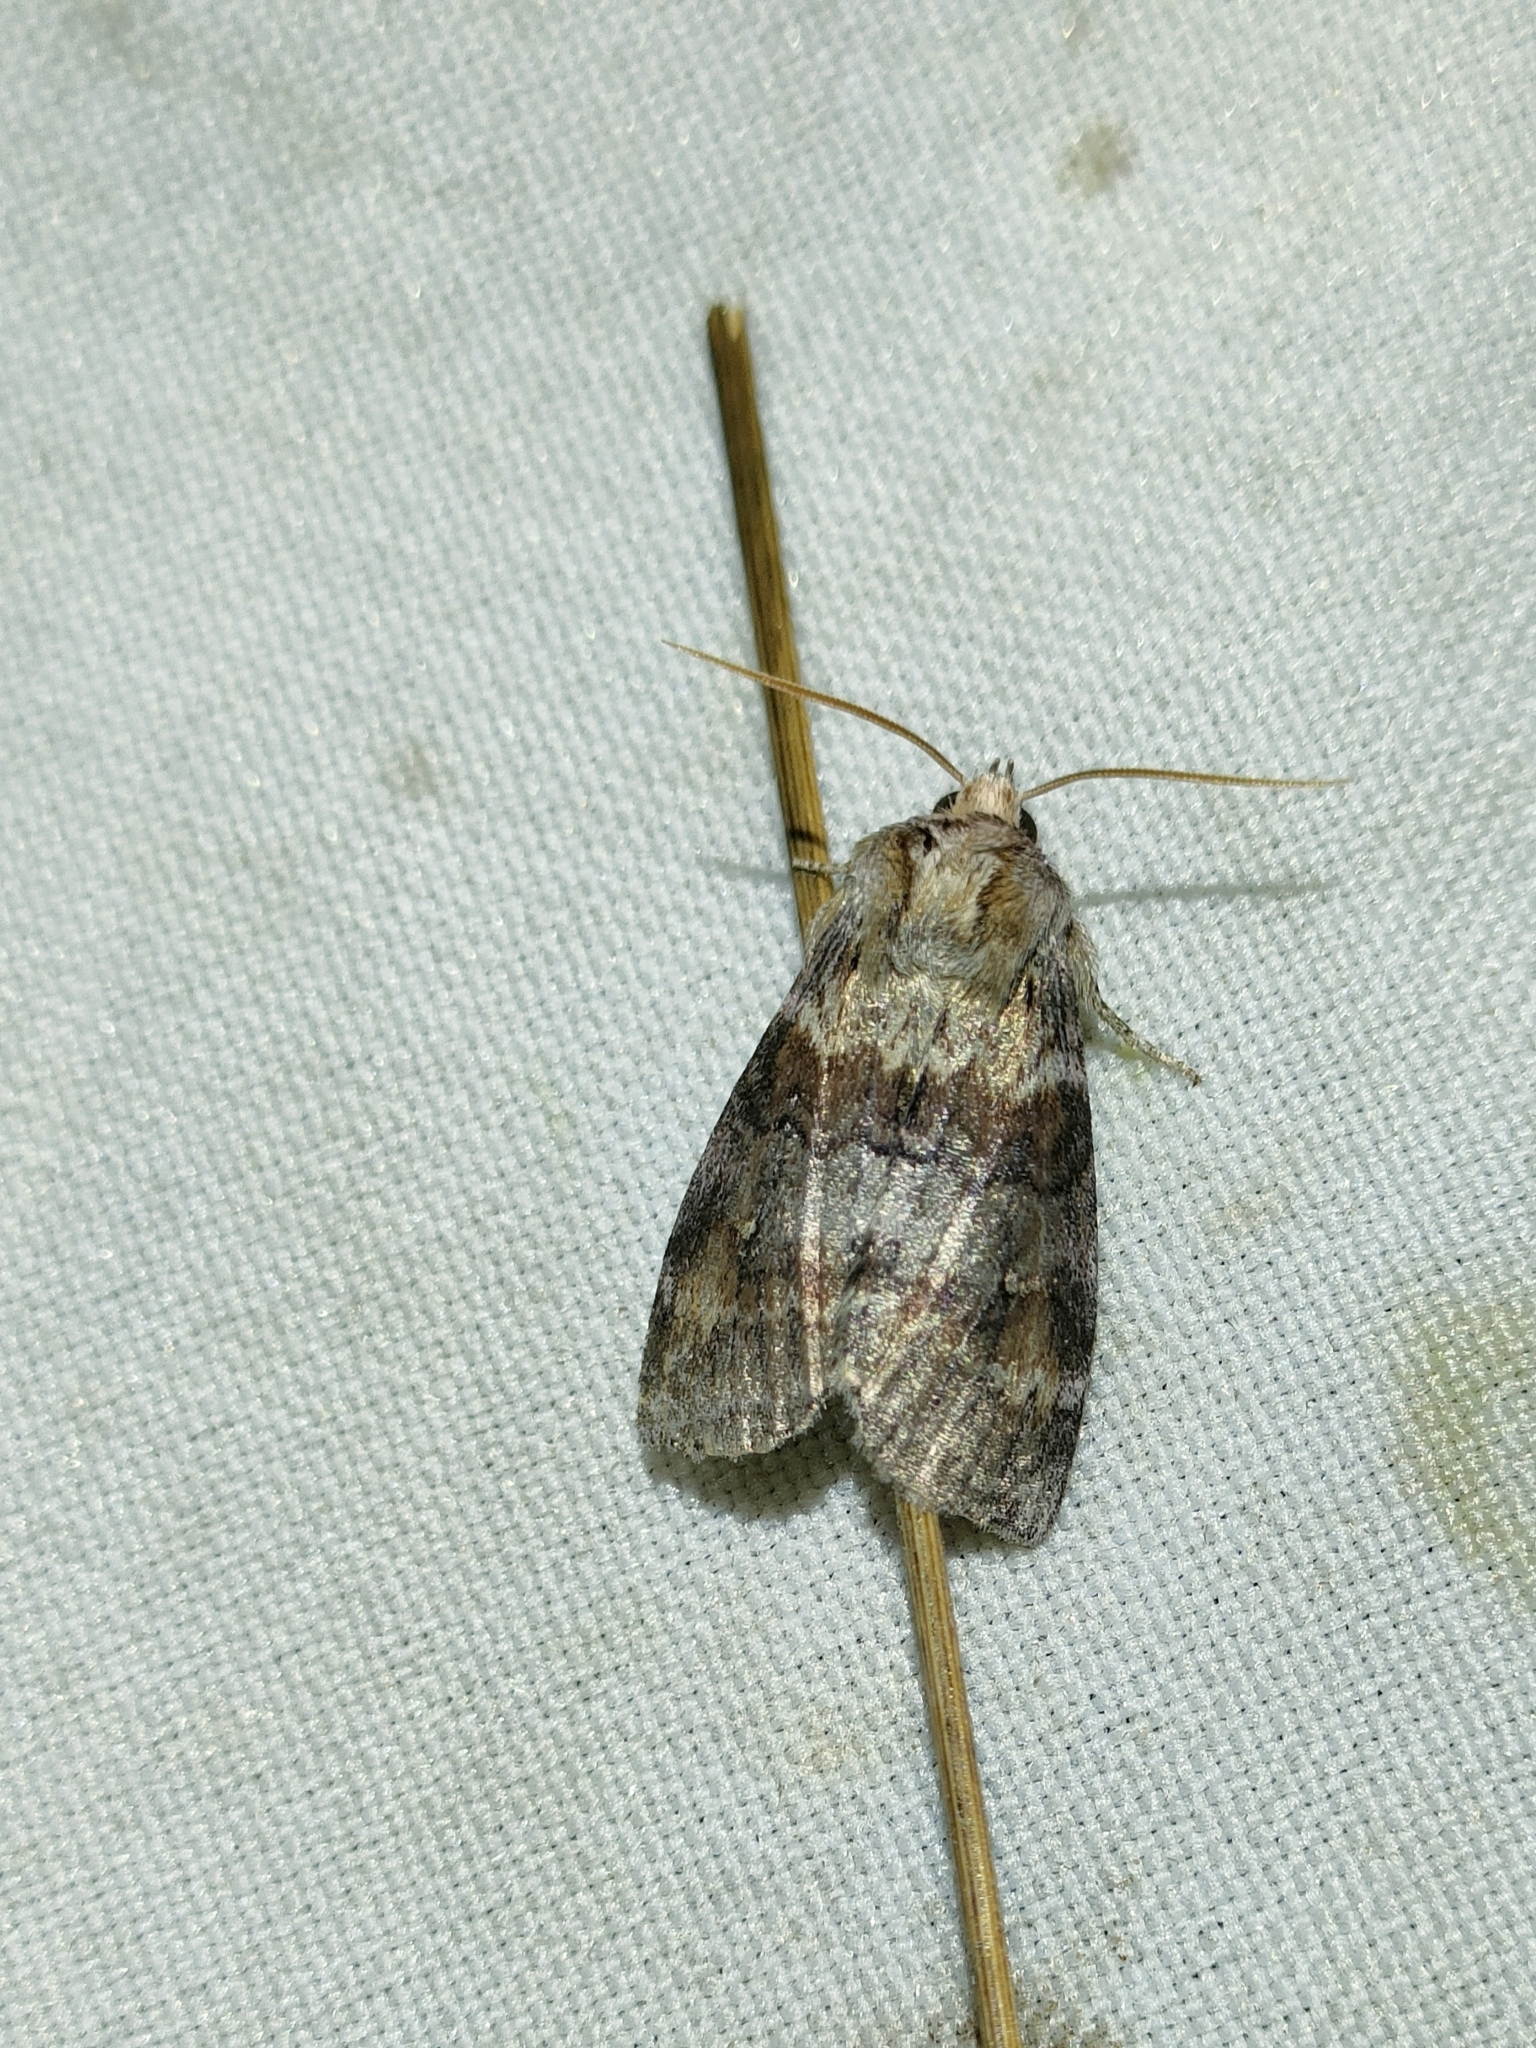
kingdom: Animalia
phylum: Arthropoda
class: Insecta
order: Lepidoptera
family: Drepanidae
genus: Cymatophorina
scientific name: Cymatophorina diluta
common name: Oak lutestring
